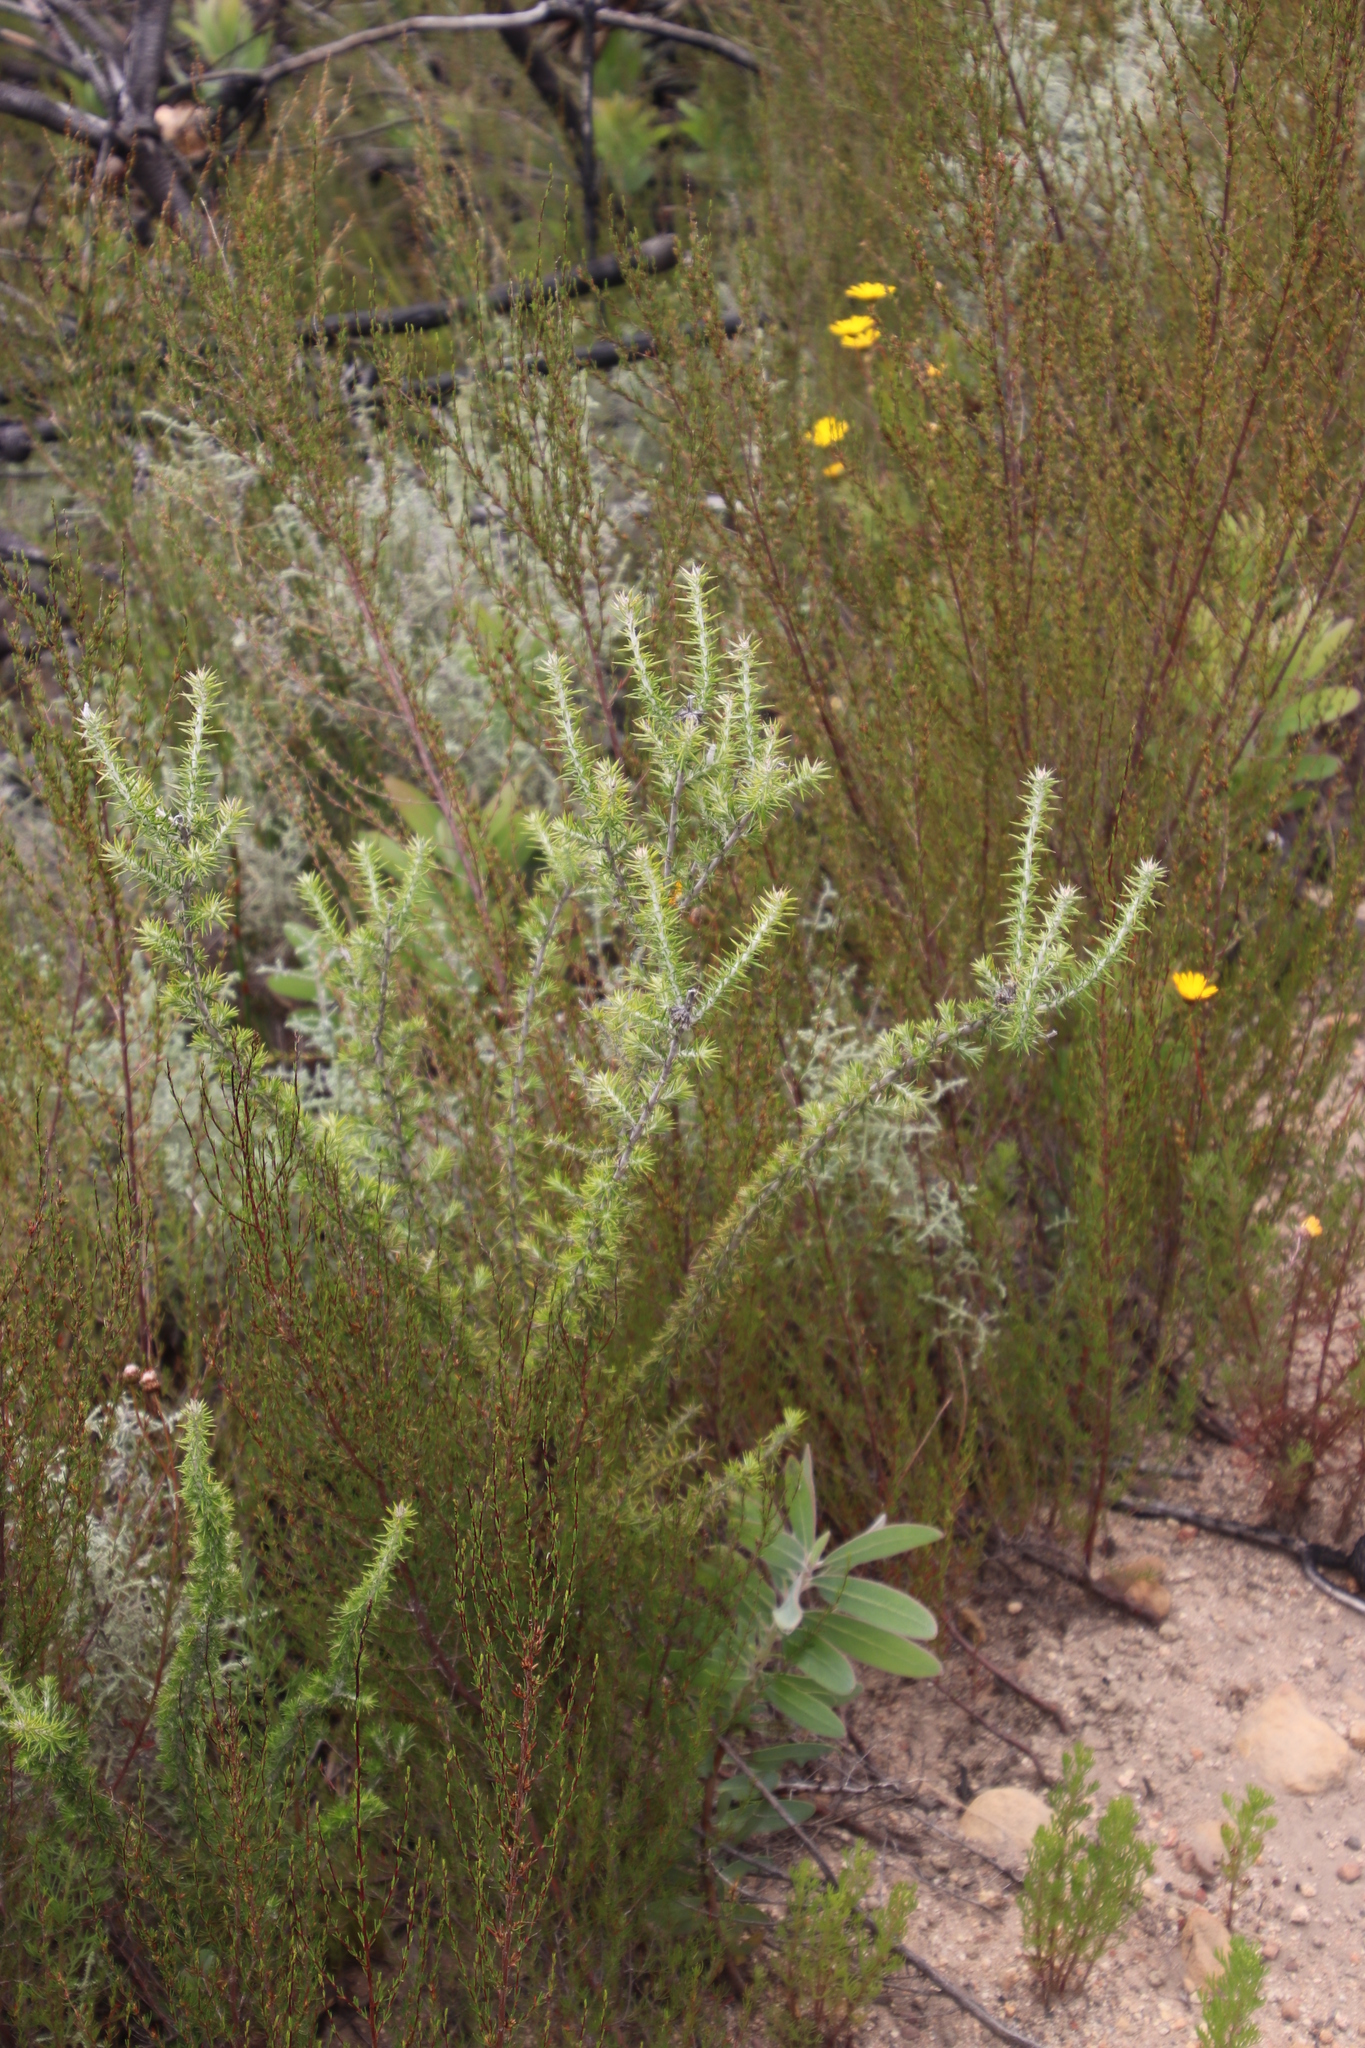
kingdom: Plantae
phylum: Tracheophyta
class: Magnoliopsida
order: Asterales
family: Asteraceae
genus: Metalasia
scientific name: Metalasia densa
